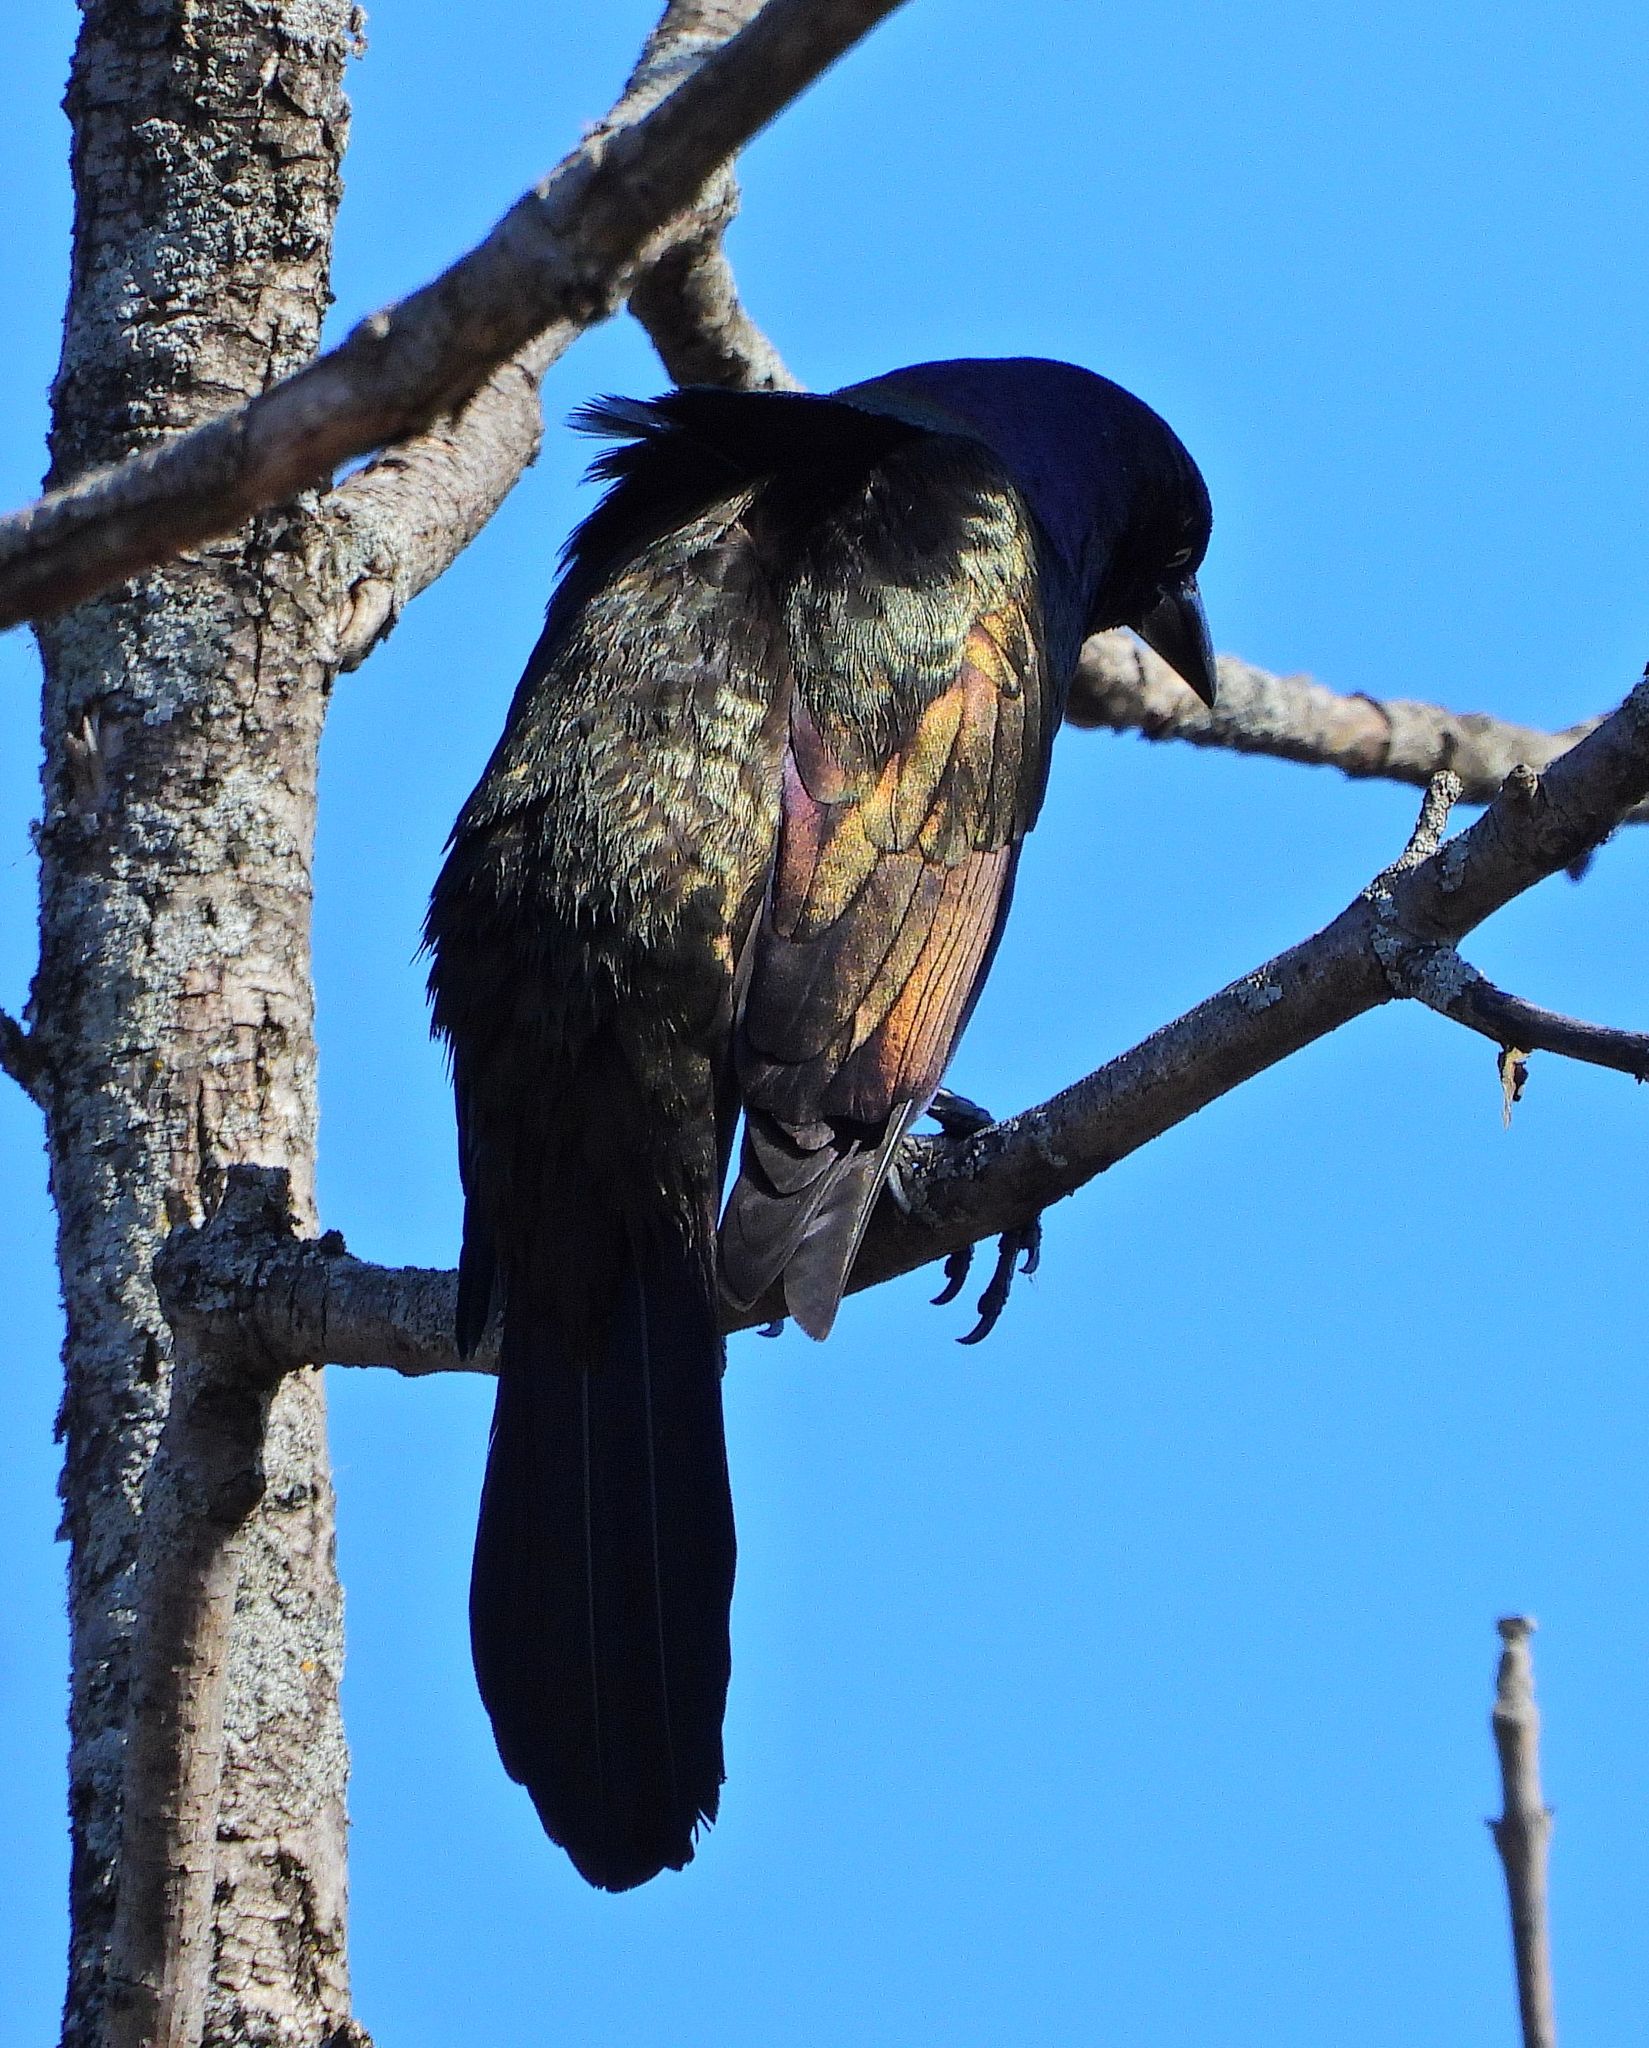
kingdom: Animalia
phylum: Chordata
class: Aves
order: Passeriformes
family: Icteridae
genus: Quiscalus
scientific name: Quiscalus quiscula
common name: Common grackle
